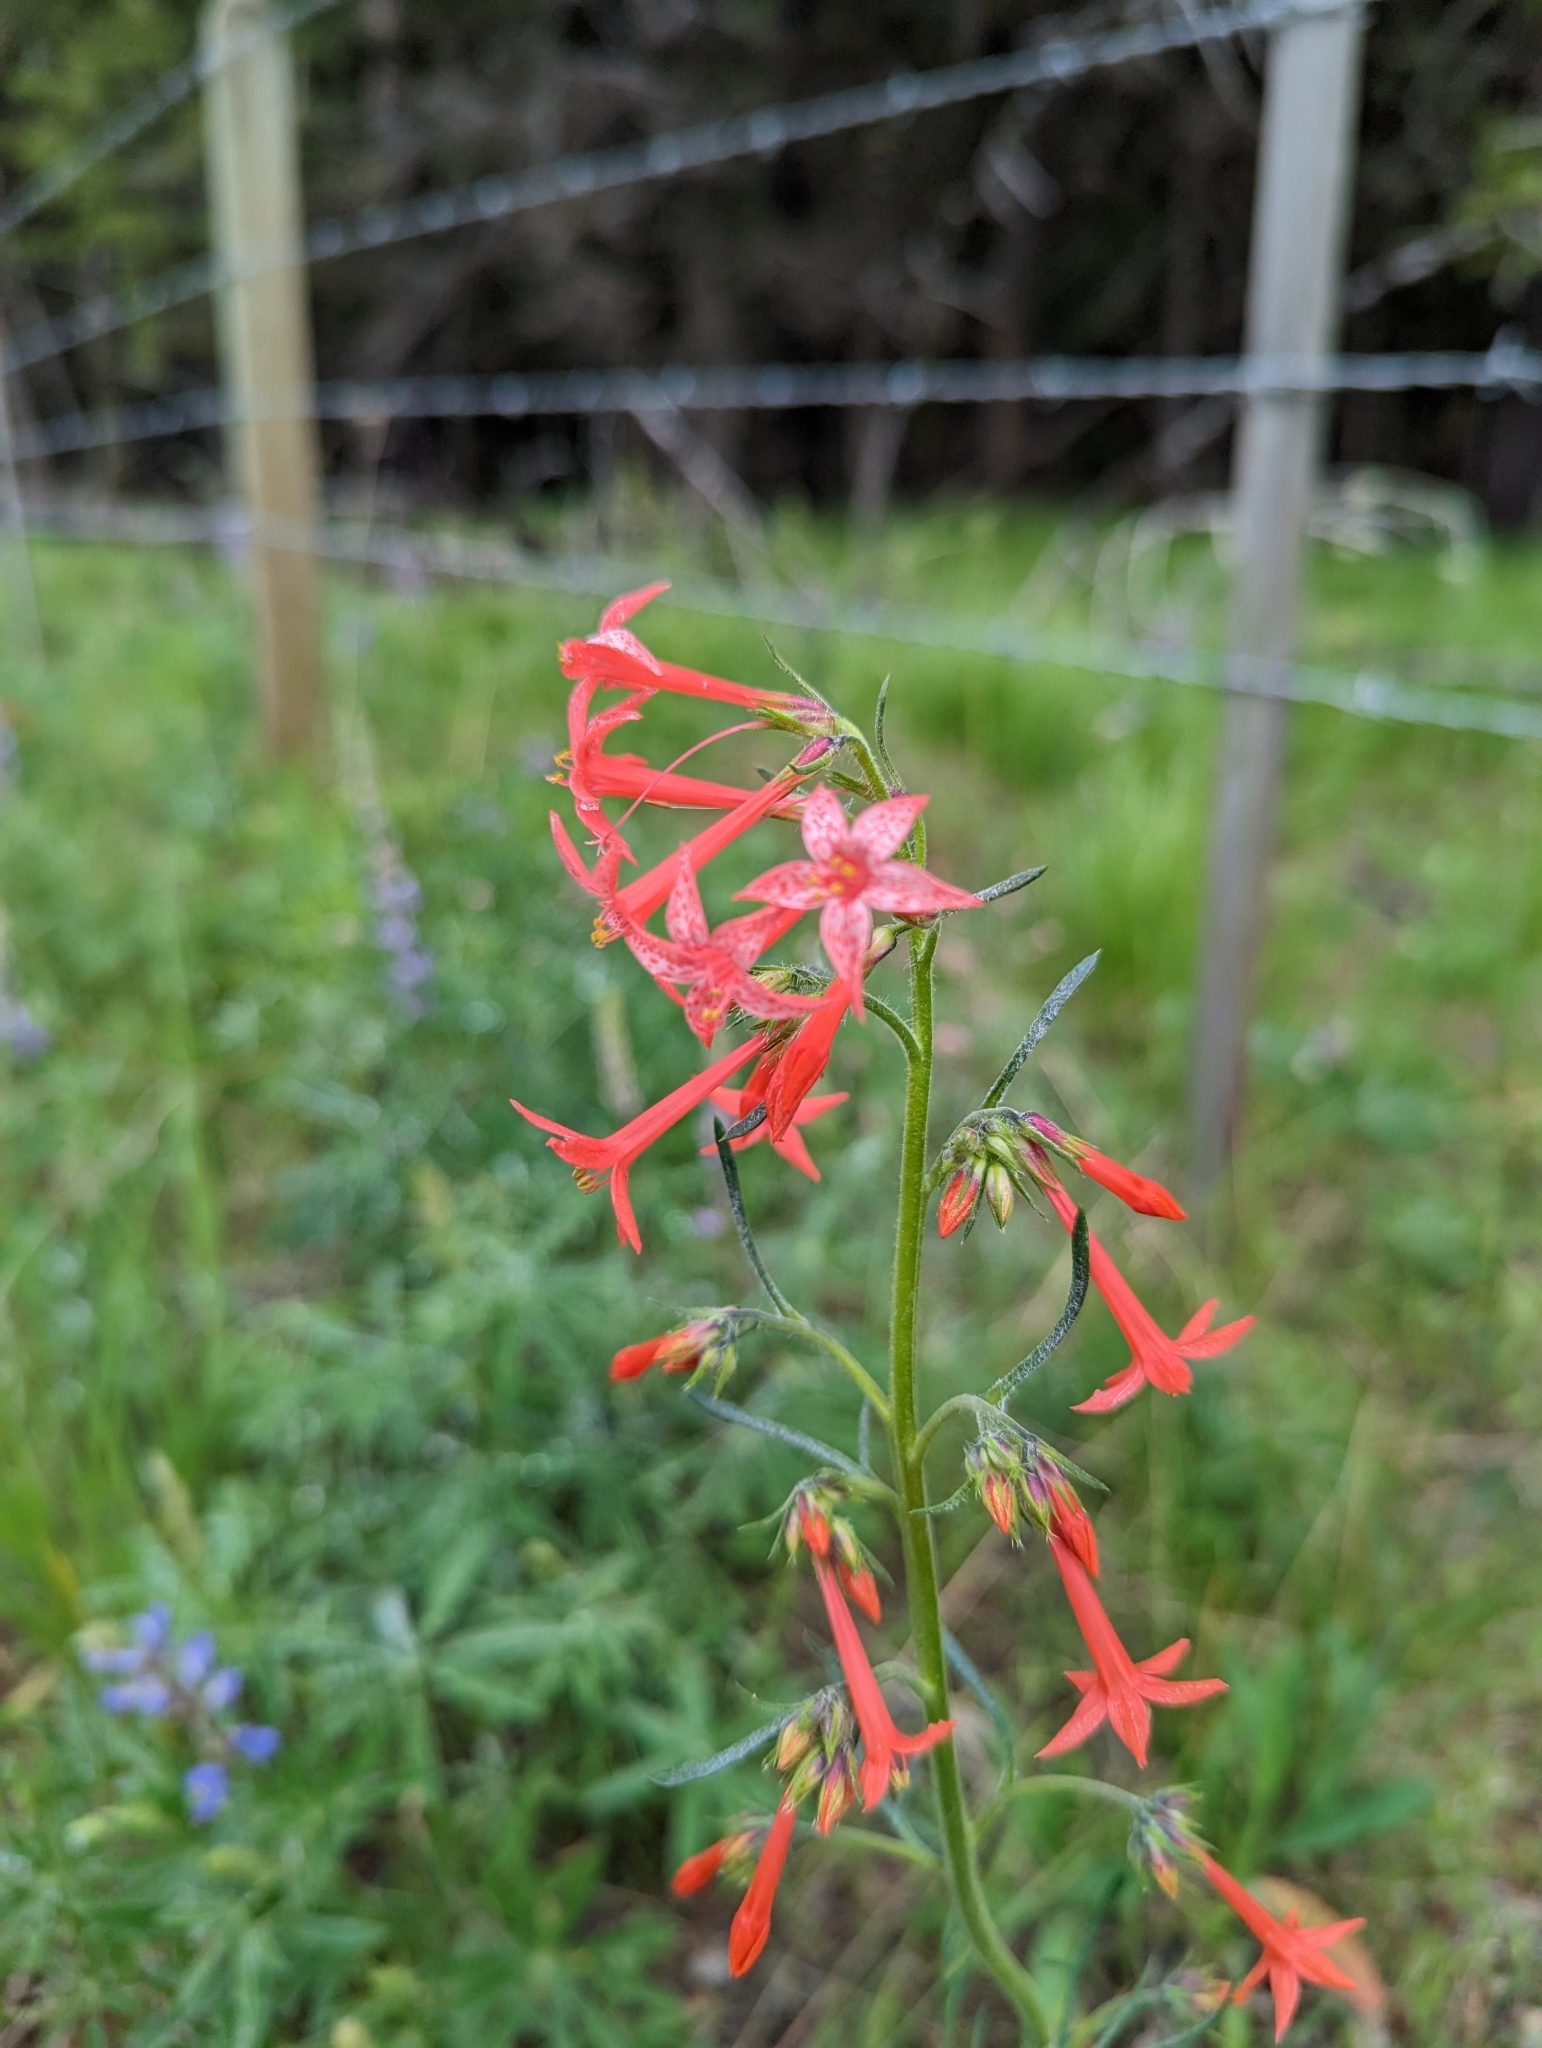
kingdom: Plantae
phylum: Tracheophyta
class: Magnoliopsida
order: Ericales
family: Polemoniaceae
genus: Ipomopsis
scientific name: Ipomopsis aggregata
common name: Scarlet gilia
